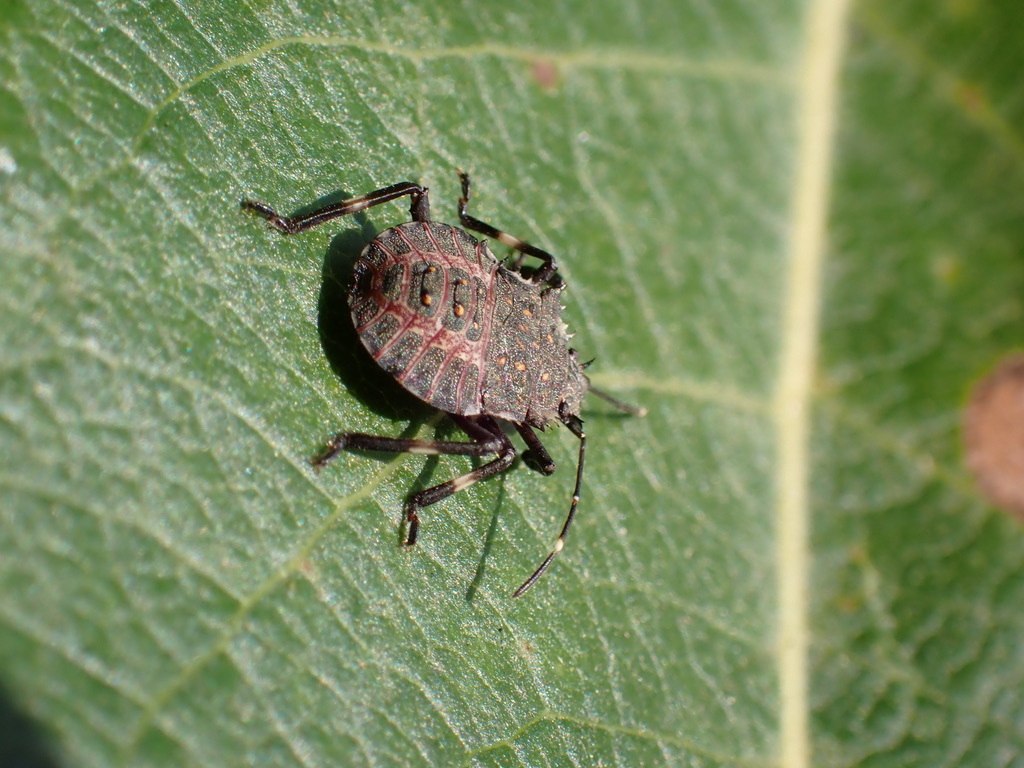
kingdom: Animalia
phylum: Arthropoda
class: Insecta
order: Hemiptera
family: Pentatomidae
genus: Halyomorpha
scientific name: Halyomorpha halys
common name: Brown marmorated stink bug
